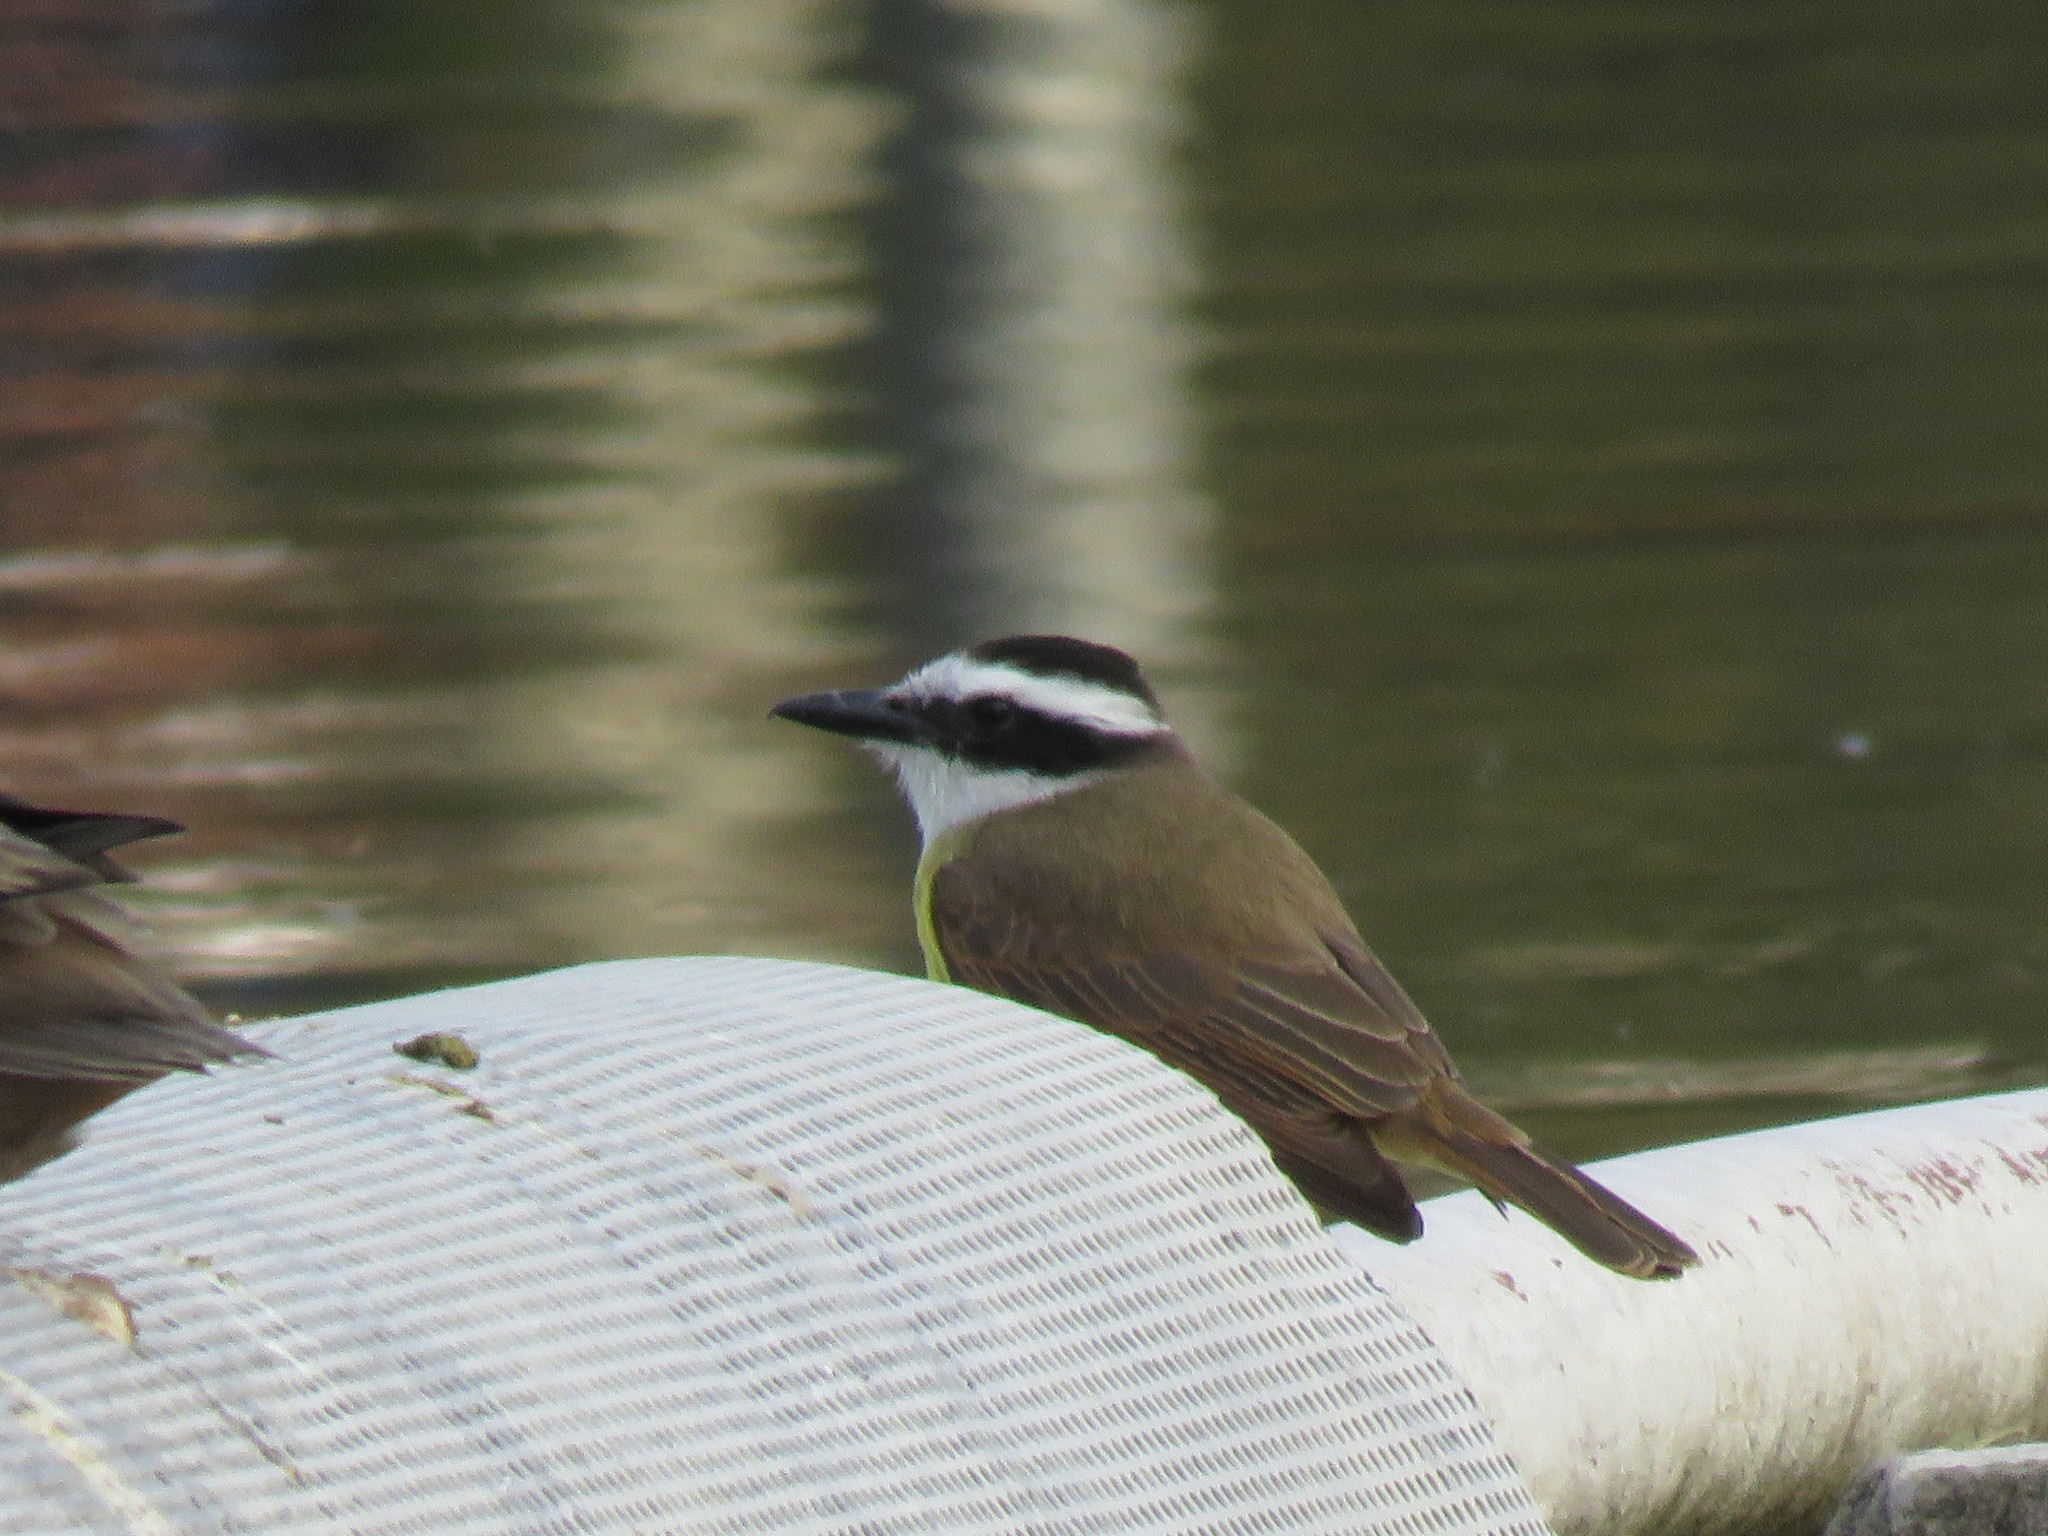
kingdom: Animalia
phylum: Chordata
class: Aves
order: Passeriformes
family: Tyrannidae
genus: Pitangus
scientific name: Pitangus sulphuratus
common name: Great kiskadee
